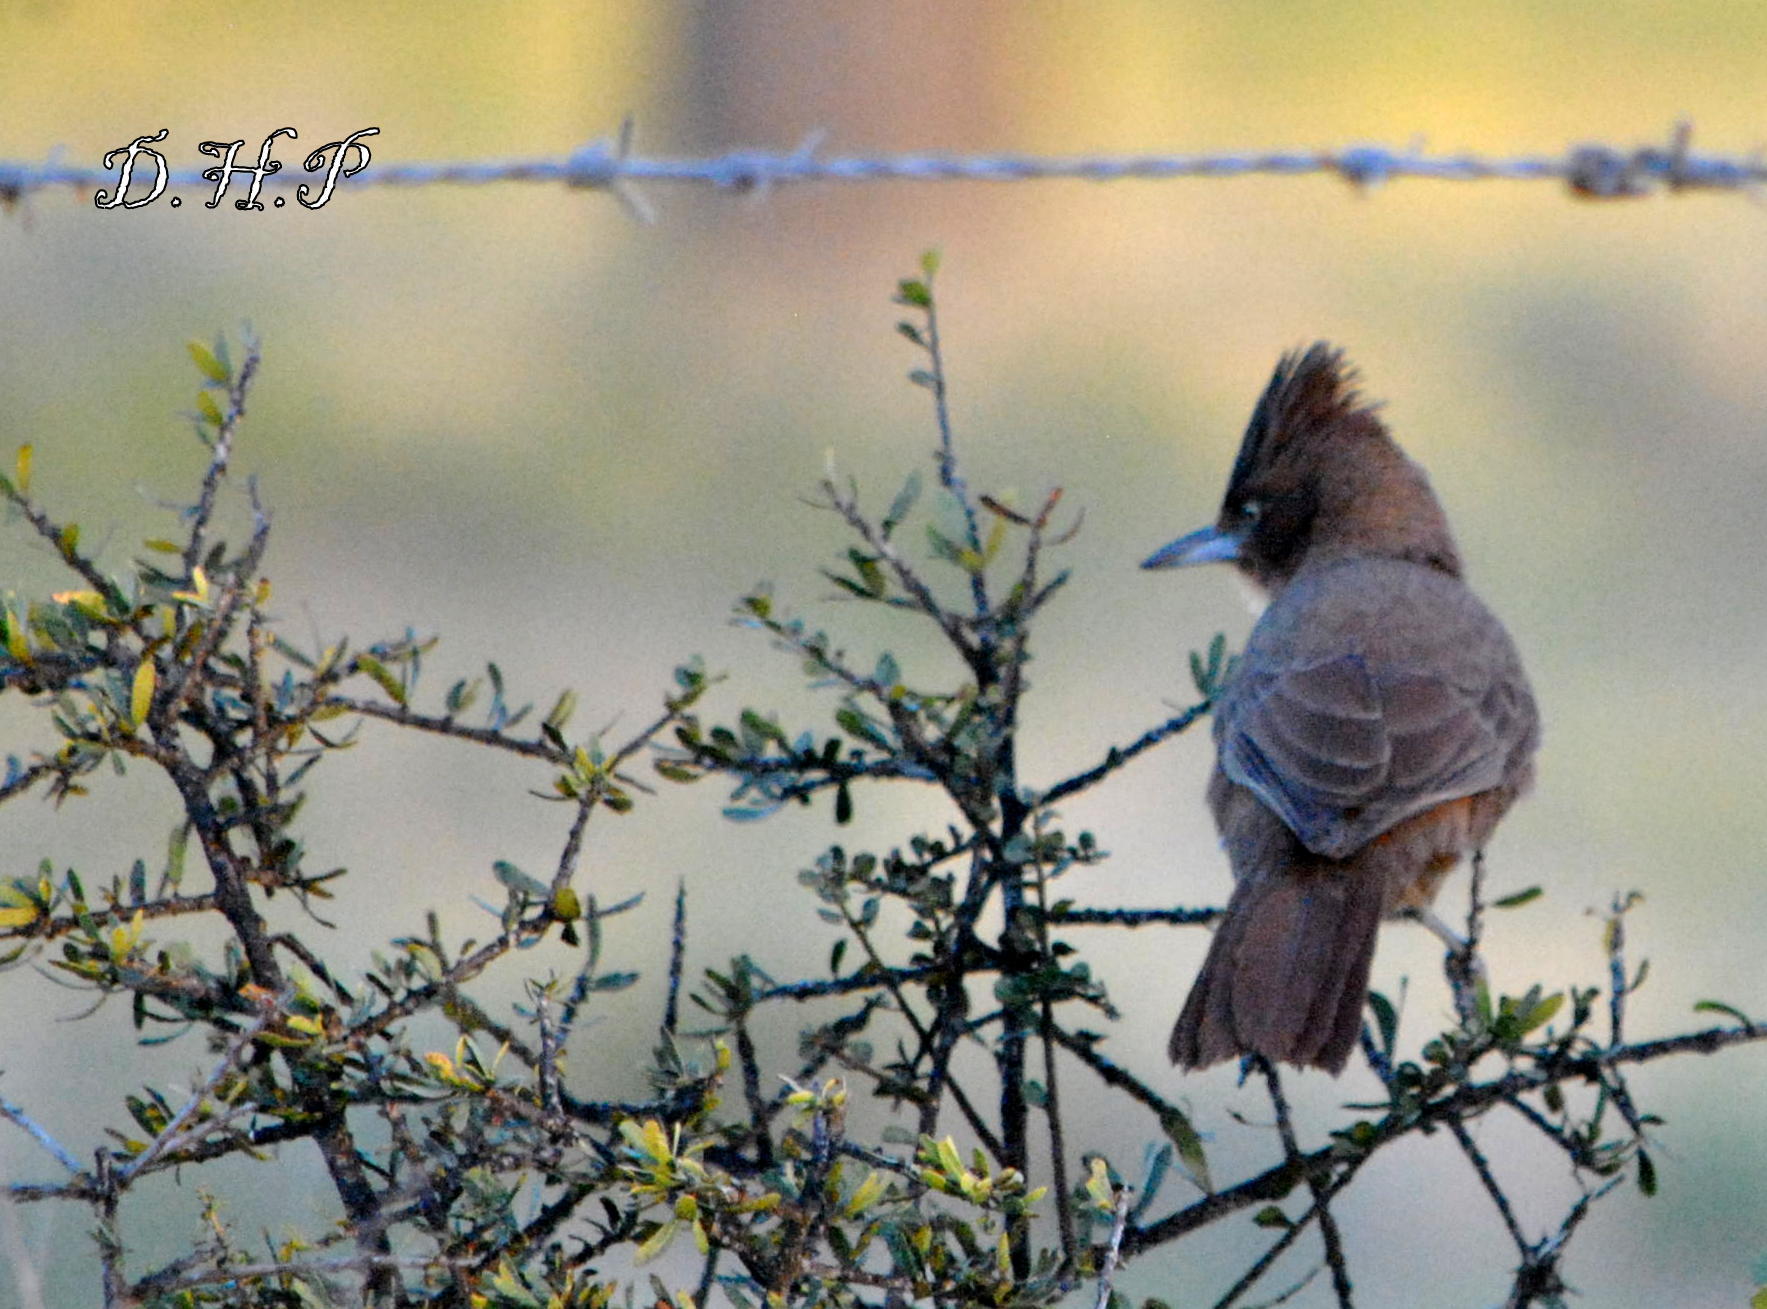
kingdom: Animalia
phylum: Chordata
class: Aves
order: Passeriformes
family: Furnariidae
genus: Pseudoseisura
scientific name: Pseudoseisura lophotes
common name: Brown cacholote
